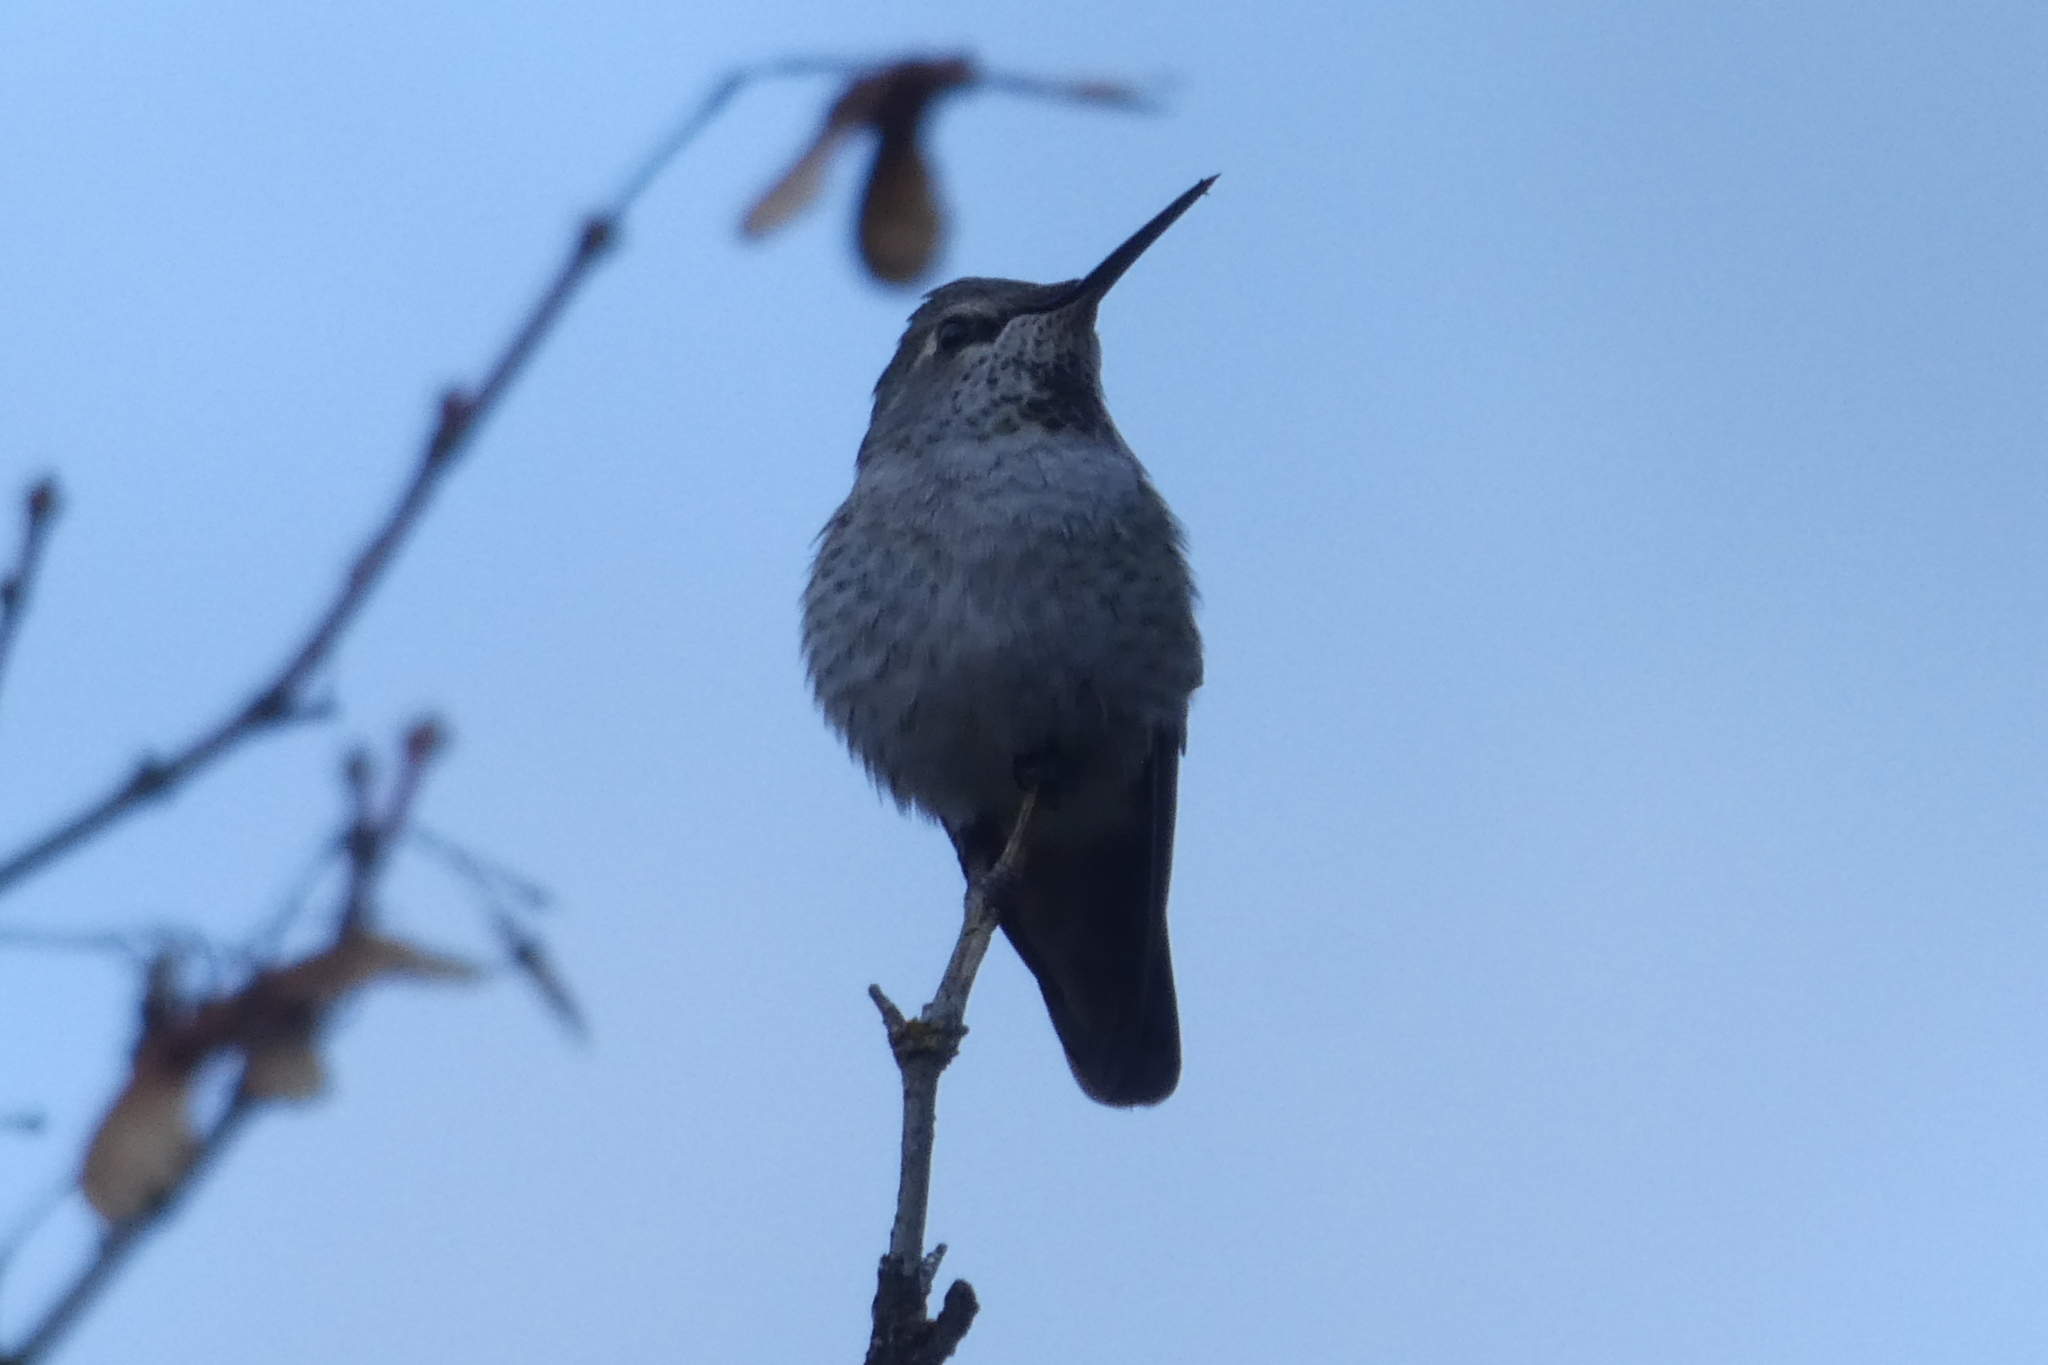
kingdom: Animalia
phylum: Chordata
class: Aves
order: Apodiformes
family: Trochilidae
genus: Calypte
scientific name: Calypte anna
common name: Anna's hummingbird
